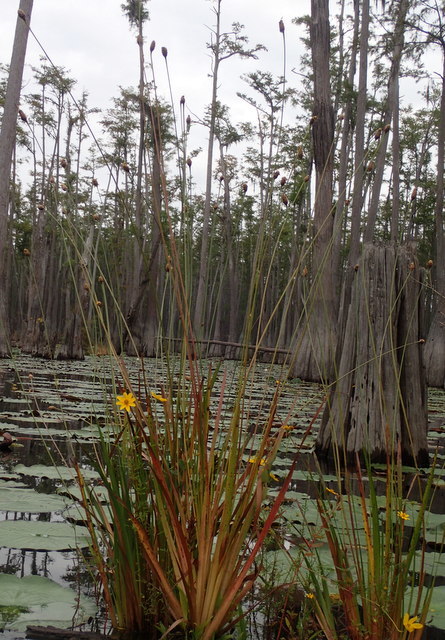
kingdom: Plantae
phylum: Tracheophyta
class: Liliopsida
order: Poales
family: Xyridaceae
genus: Xyris
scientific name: Xyris fimbriata
